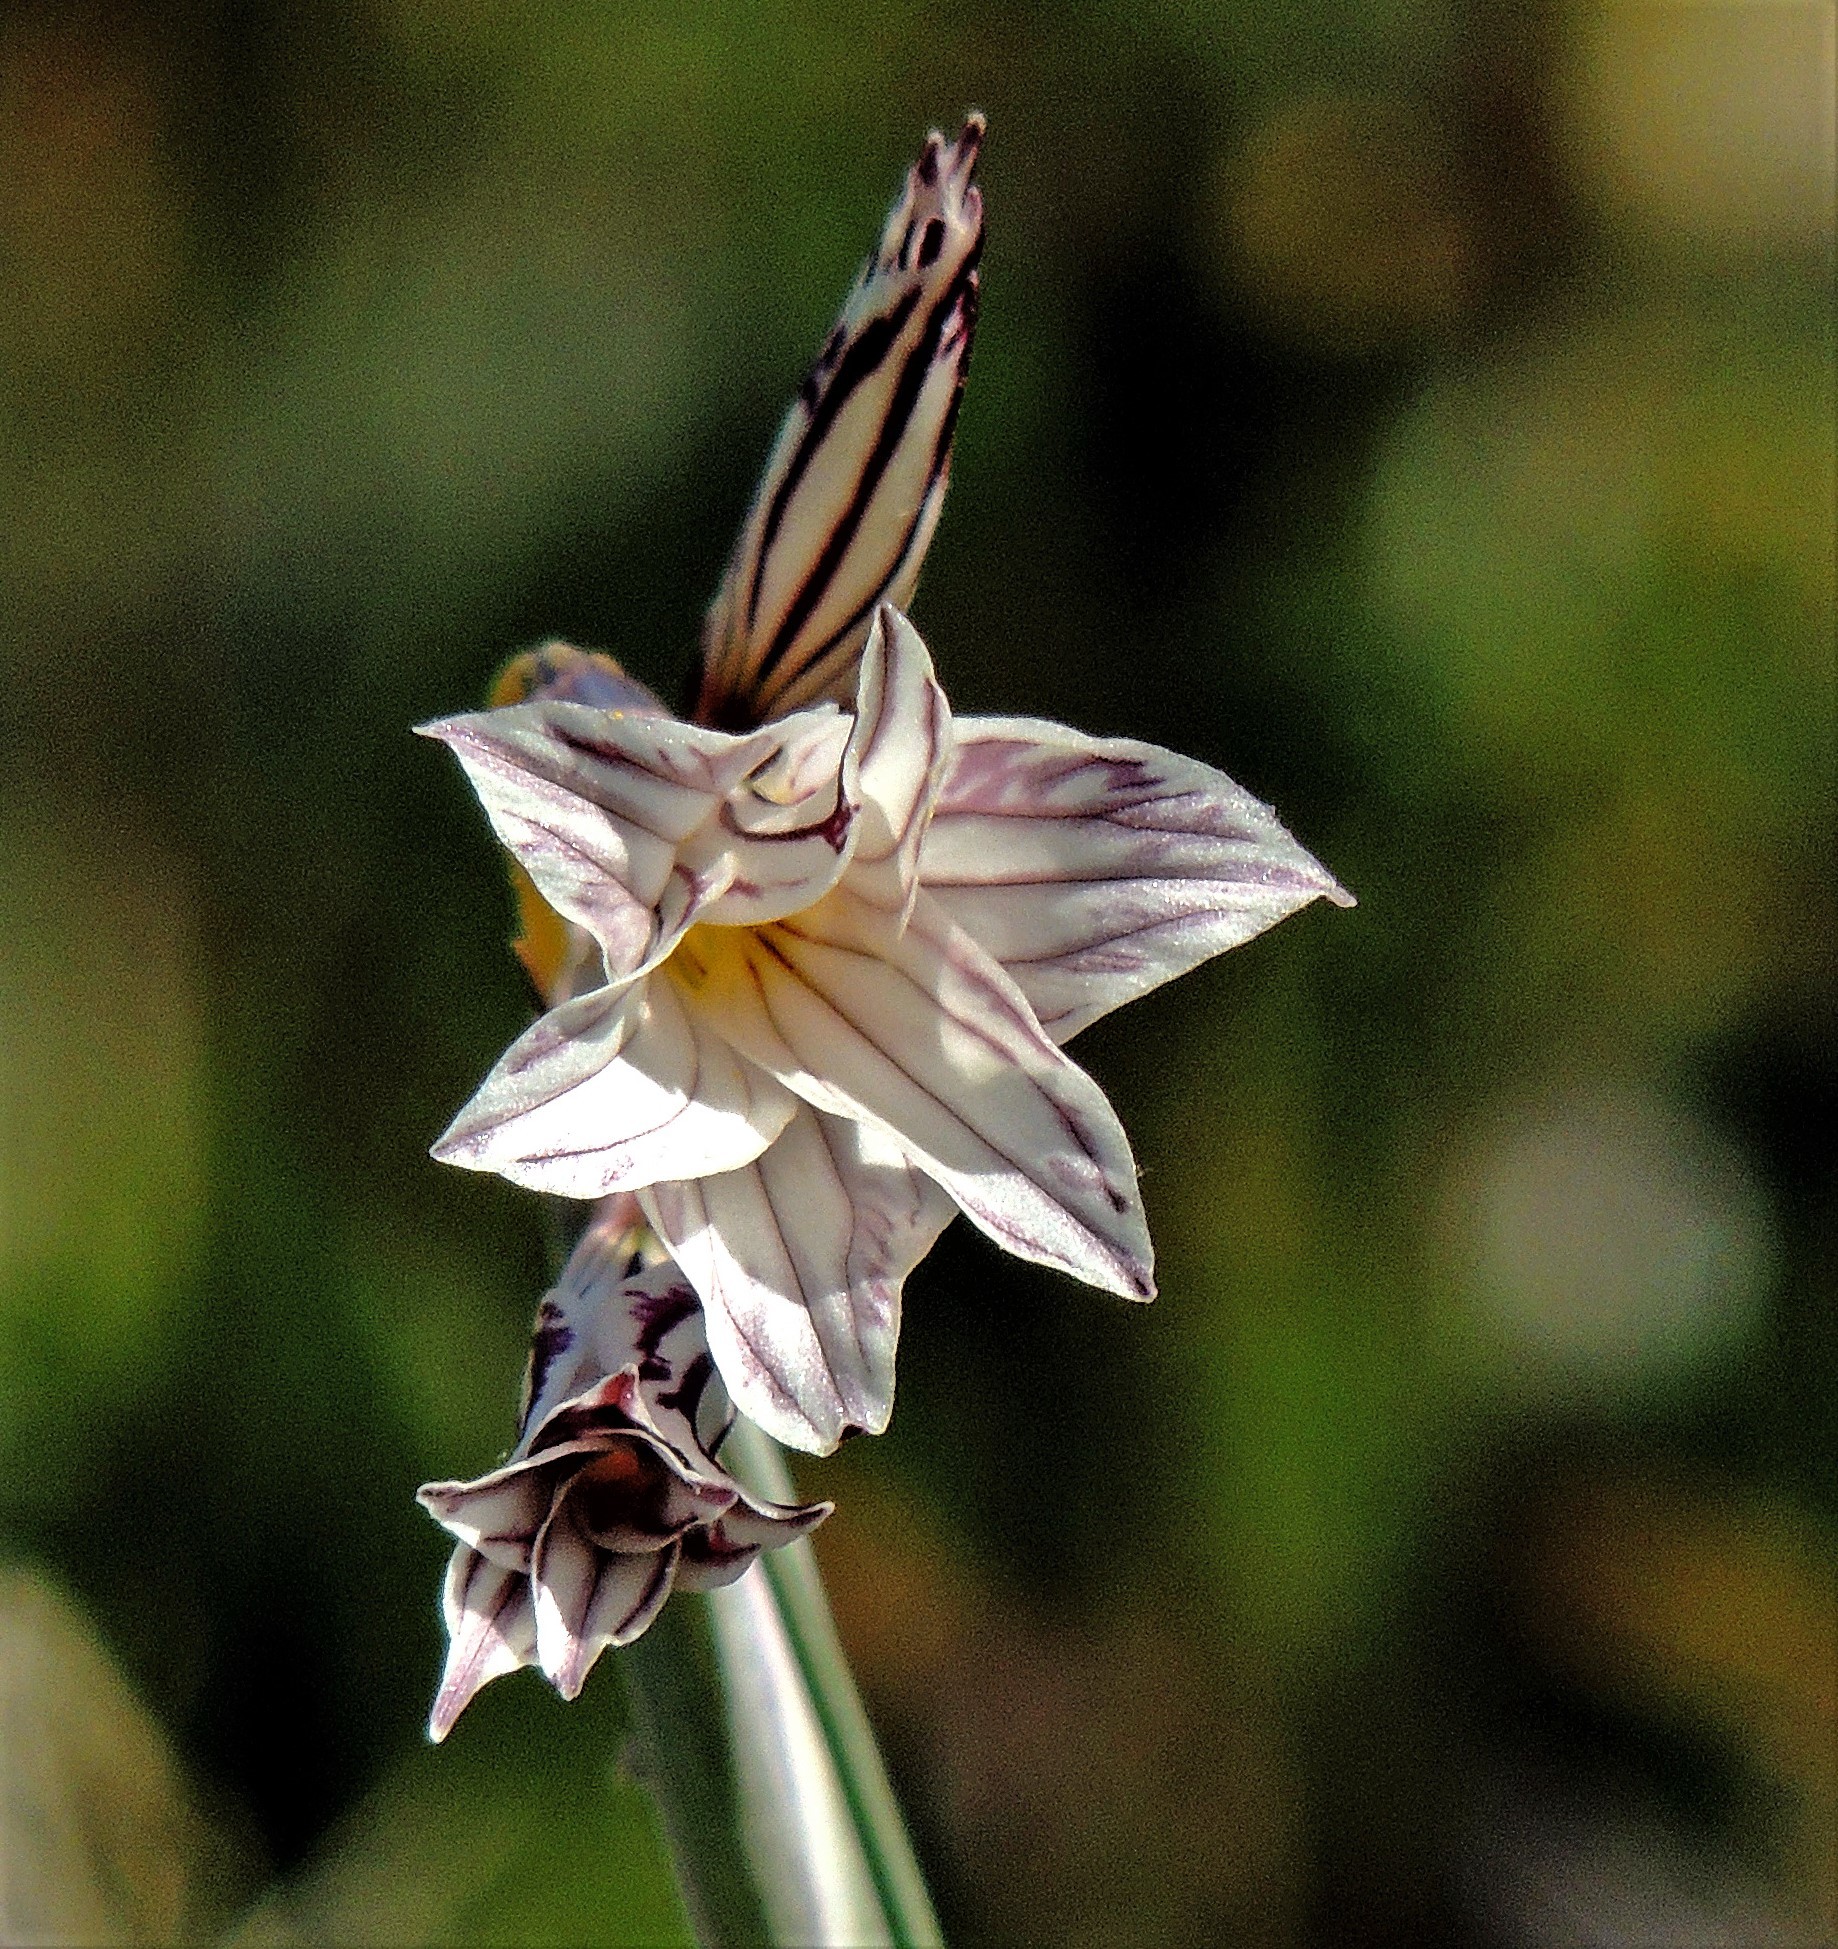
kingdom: Plantae
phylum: Tracheophyta
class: Liliopsida
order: Asparagales
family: Iridaceae
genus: Olsynium
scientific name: Olsynium biflorum
